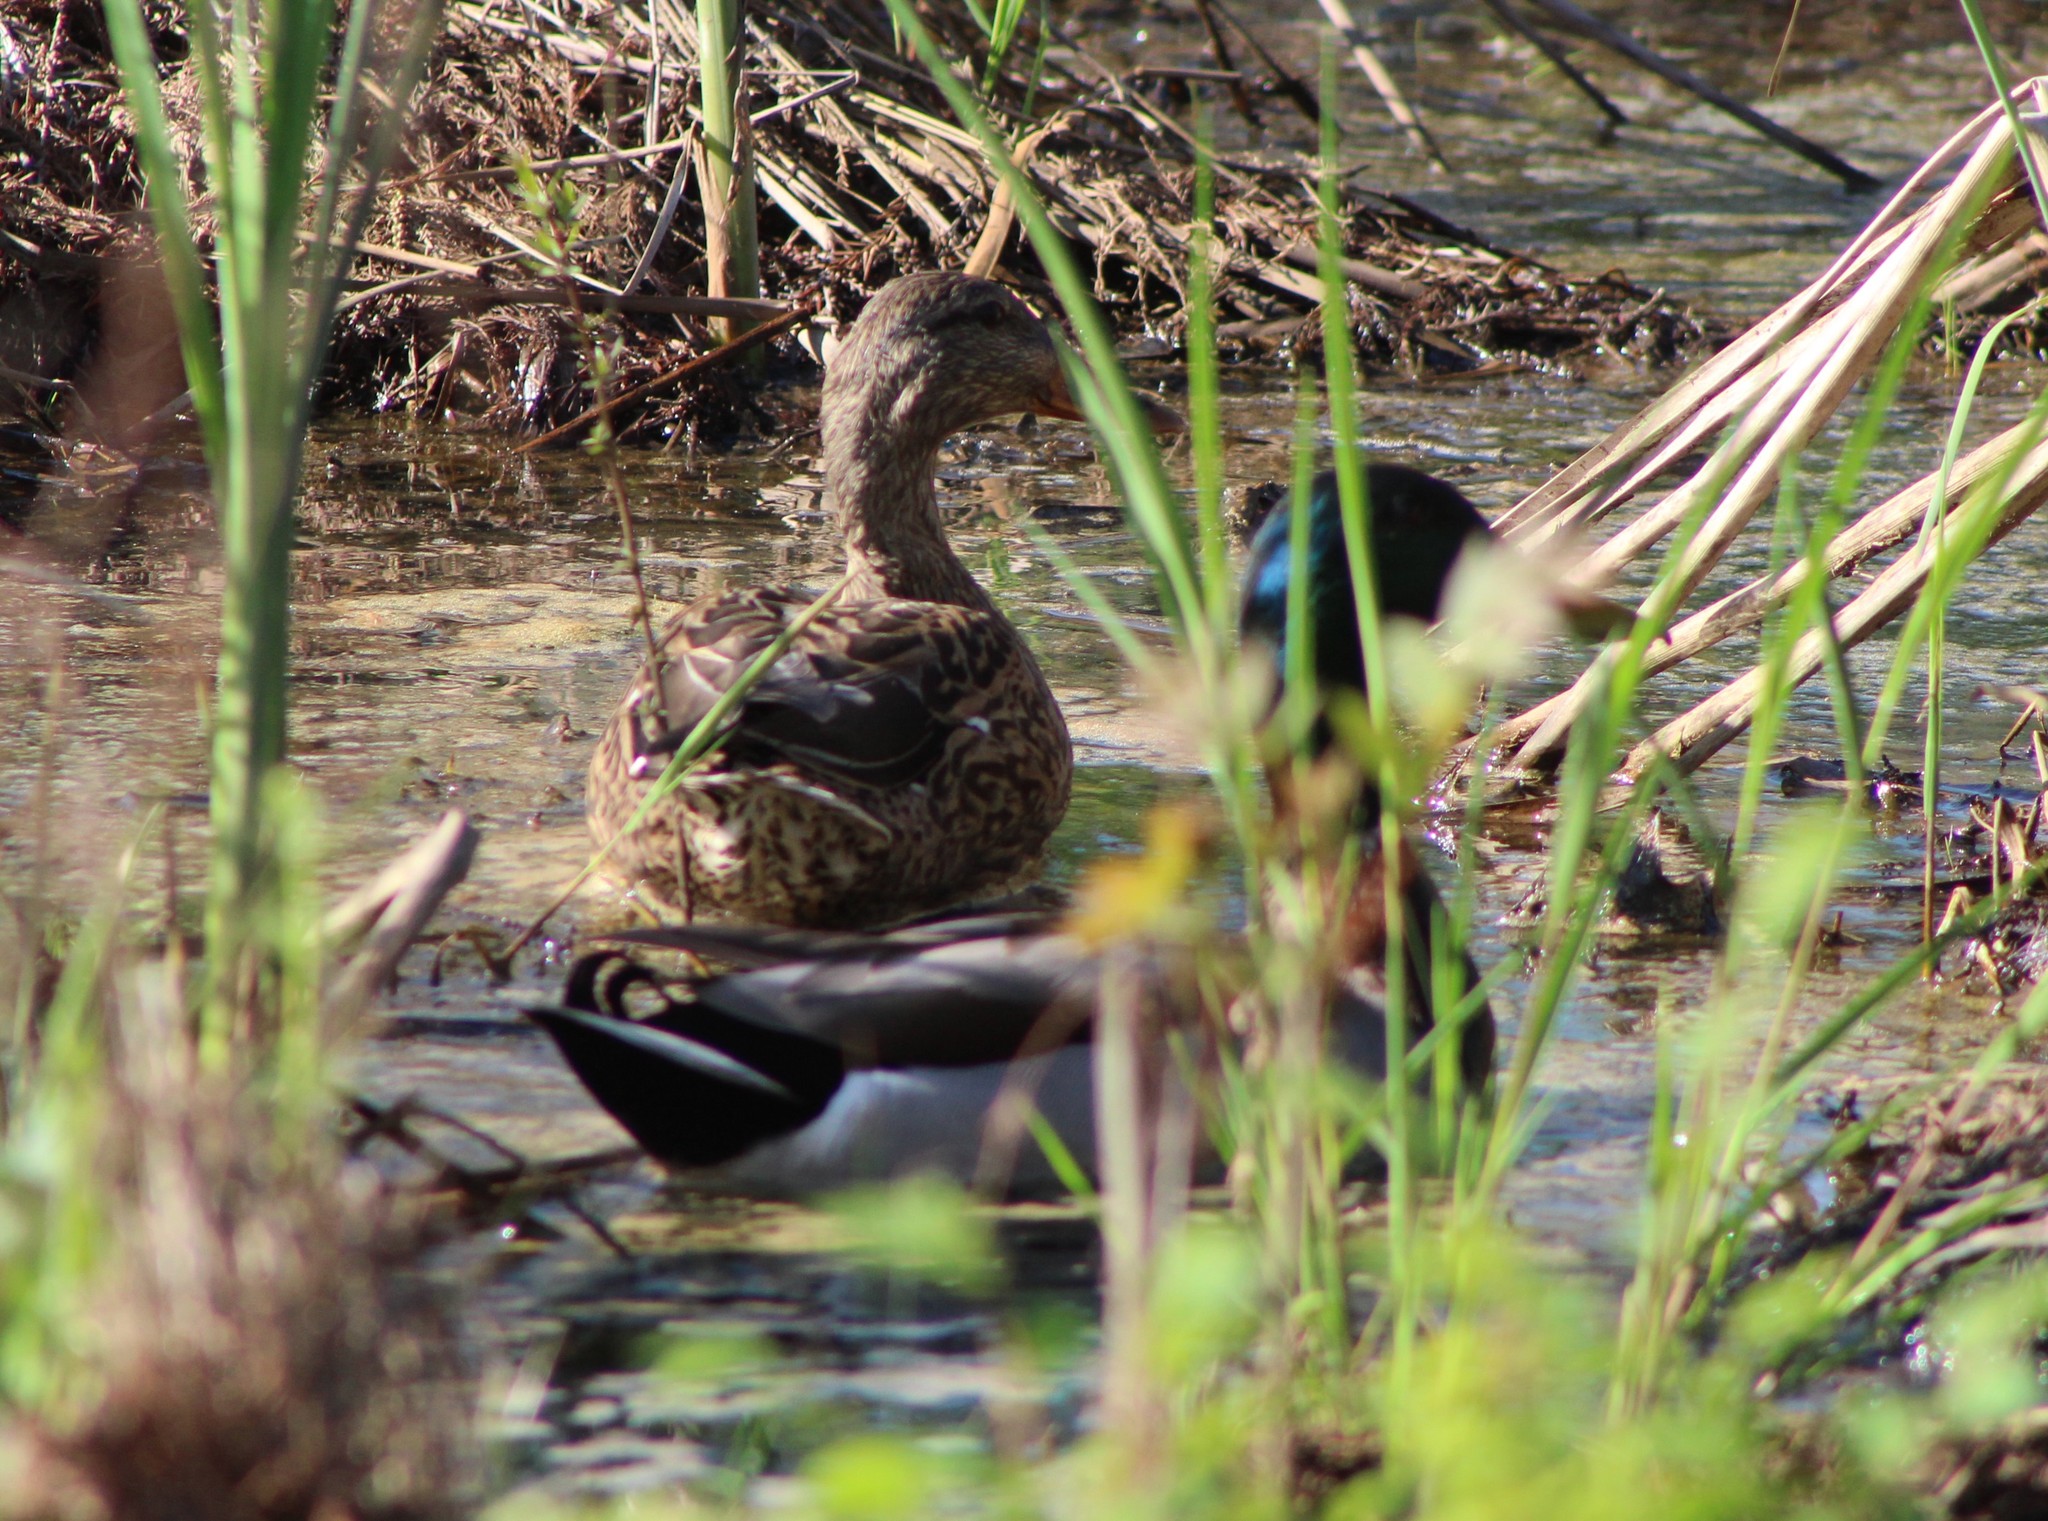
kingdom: Animalia
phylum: Chordata
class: Aves
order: Anseriformes
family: Anatidae
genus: Anas
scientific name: Anas platyrhynchos
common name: Mallard
